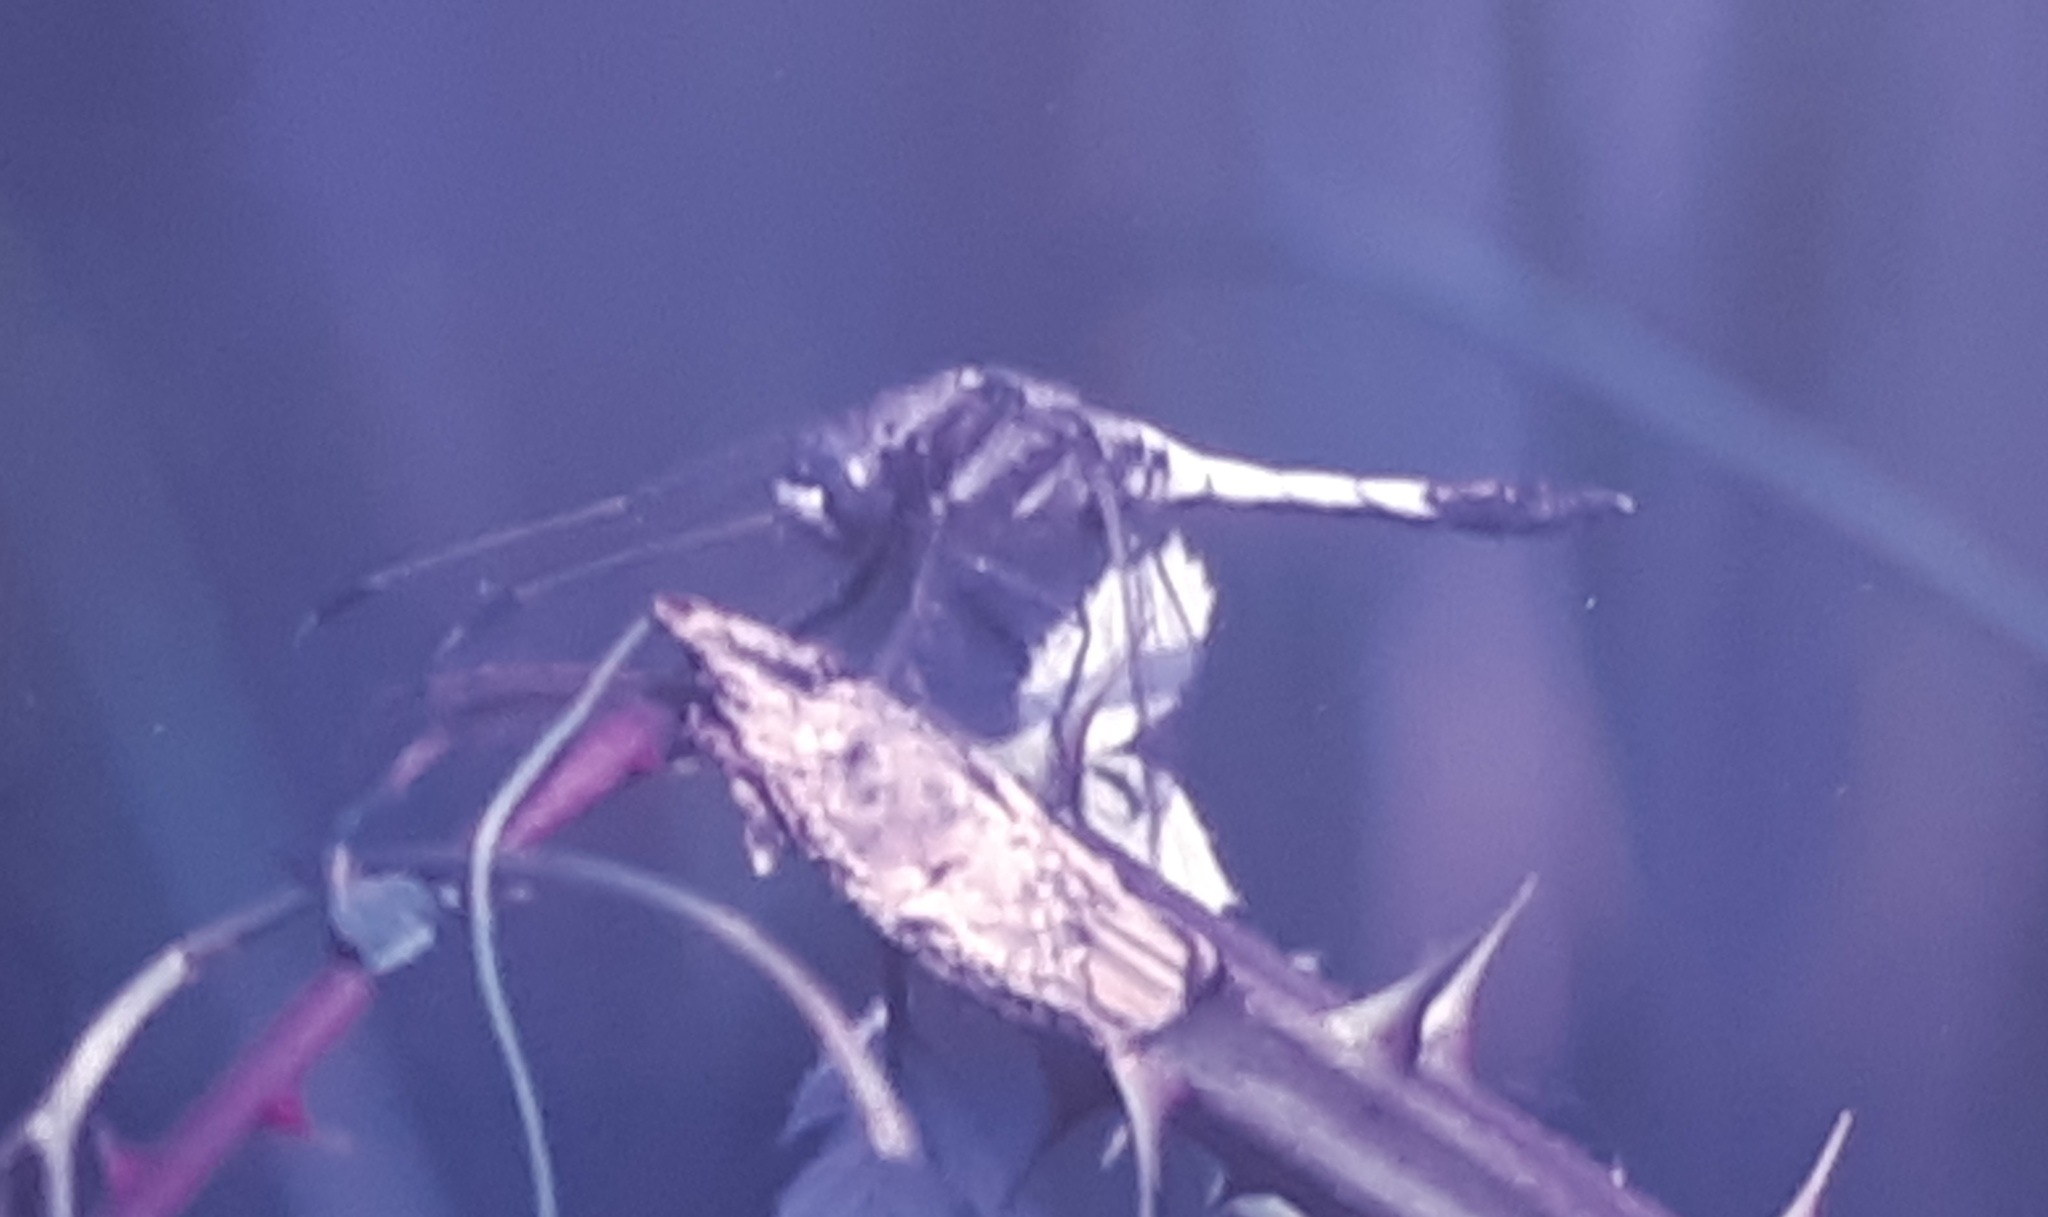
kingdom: Animalia
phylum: Arthropoda
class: Insecta
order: Odonata
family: Libellulidae
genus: Orthetrum
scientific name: Orthetrum albistylum
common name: White-tailed skimmer
